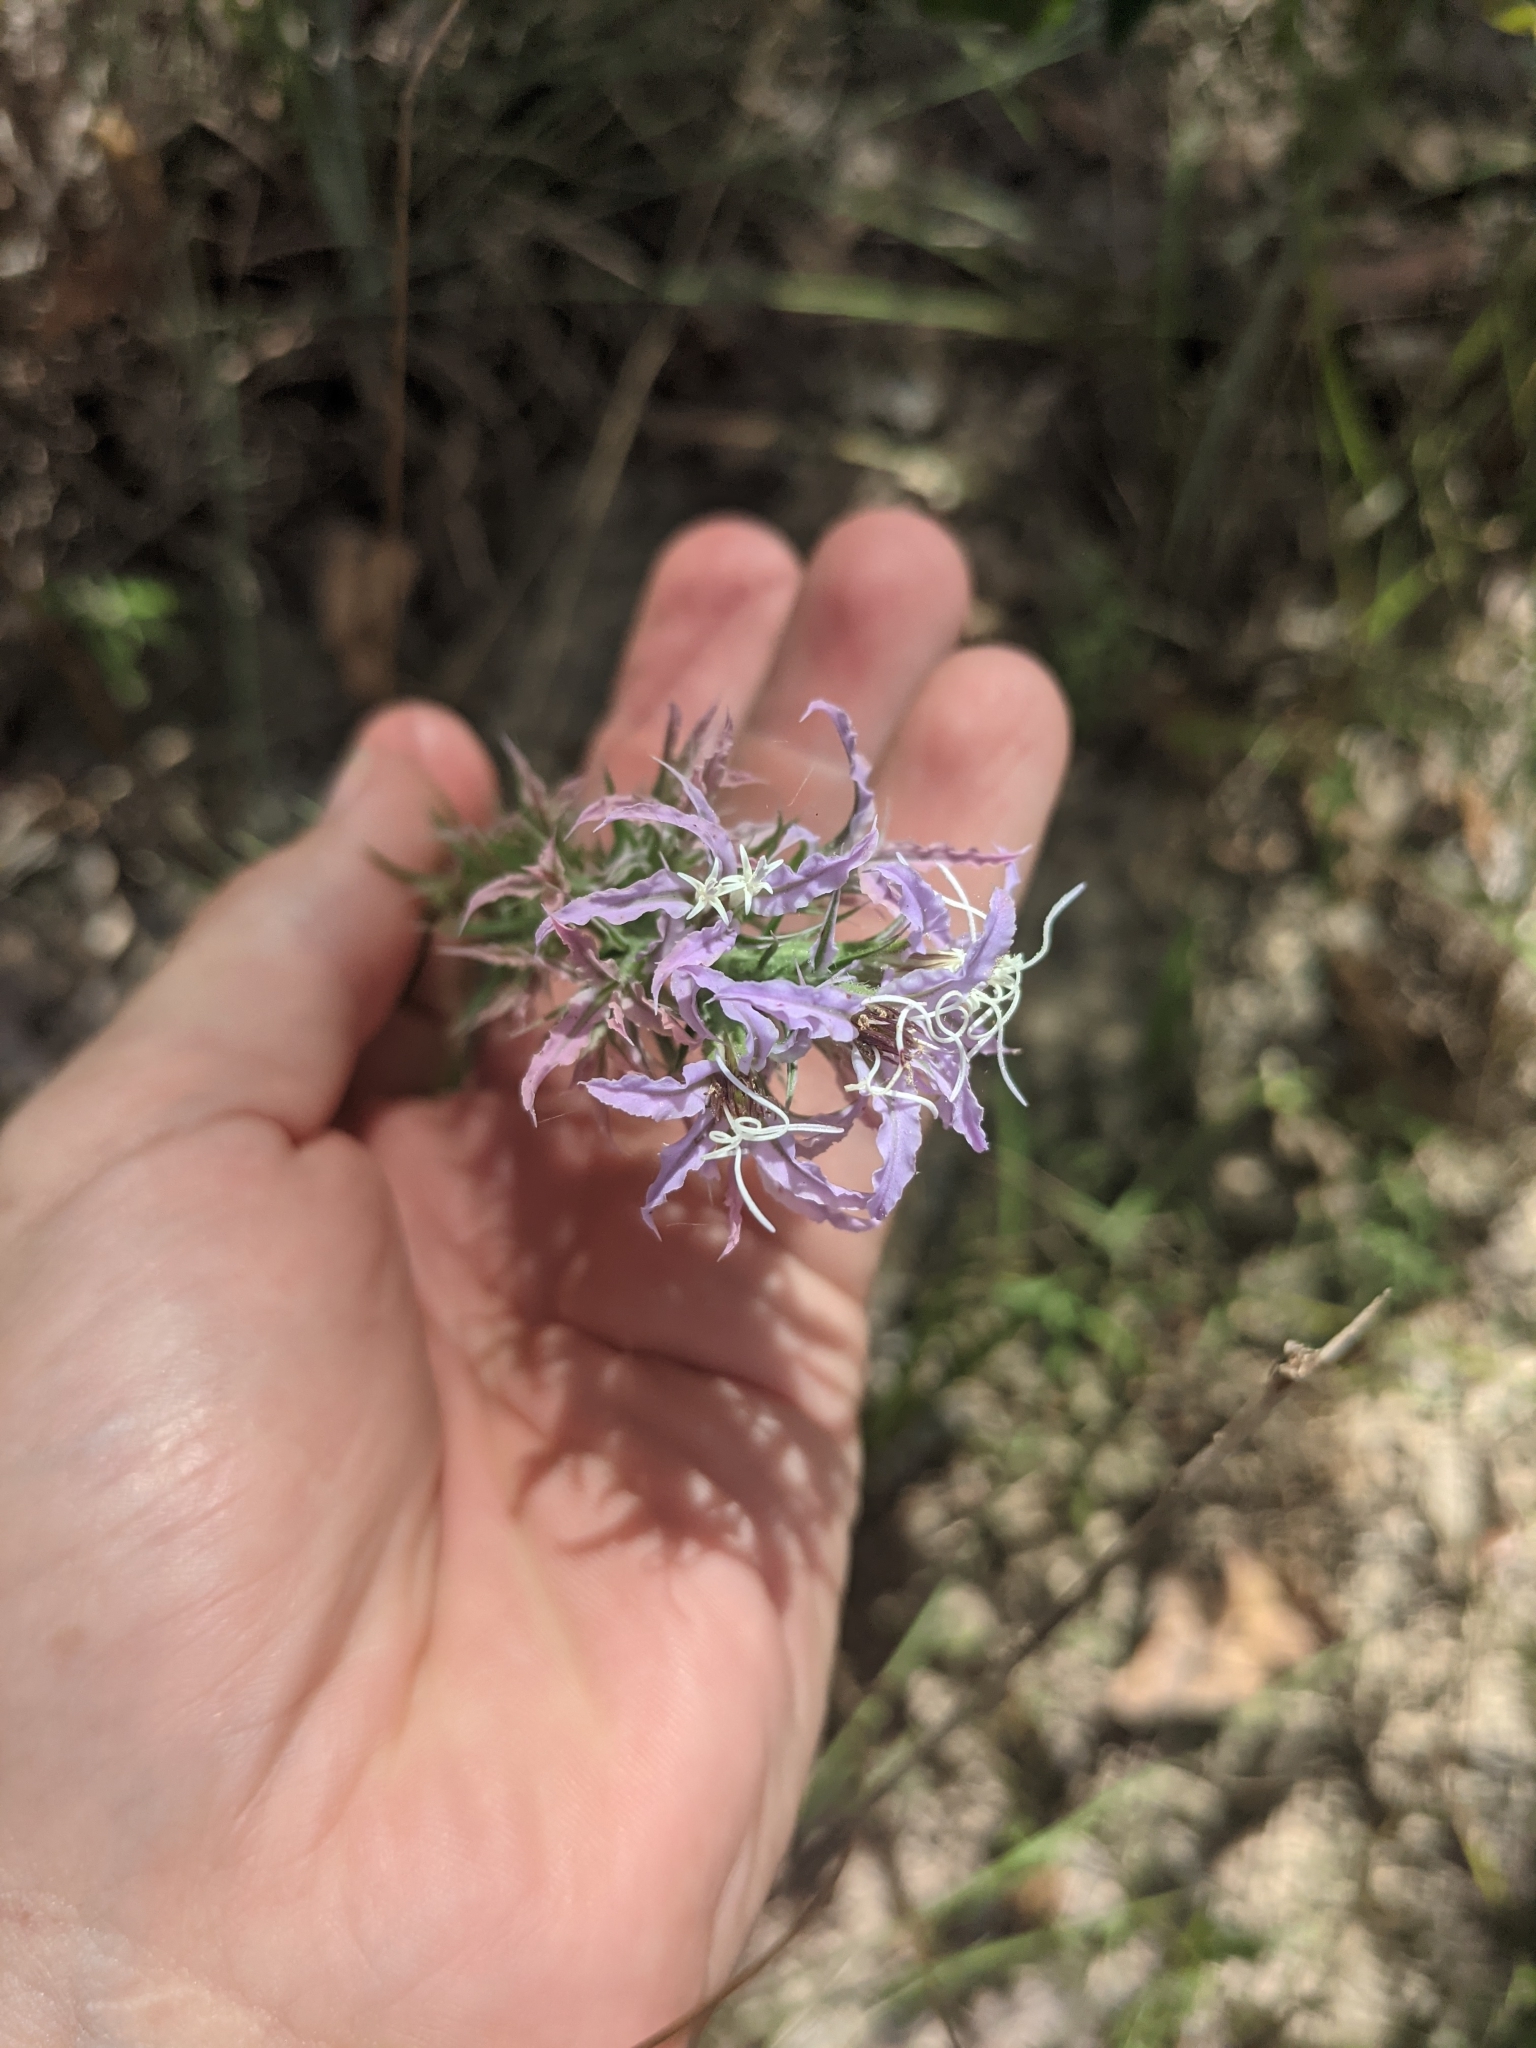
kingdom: Plantae
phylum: Tracheophyta
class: Magnoliopsida
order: Asterales
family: Asteraceae
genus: Liatris
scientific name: Liatris carizzana
